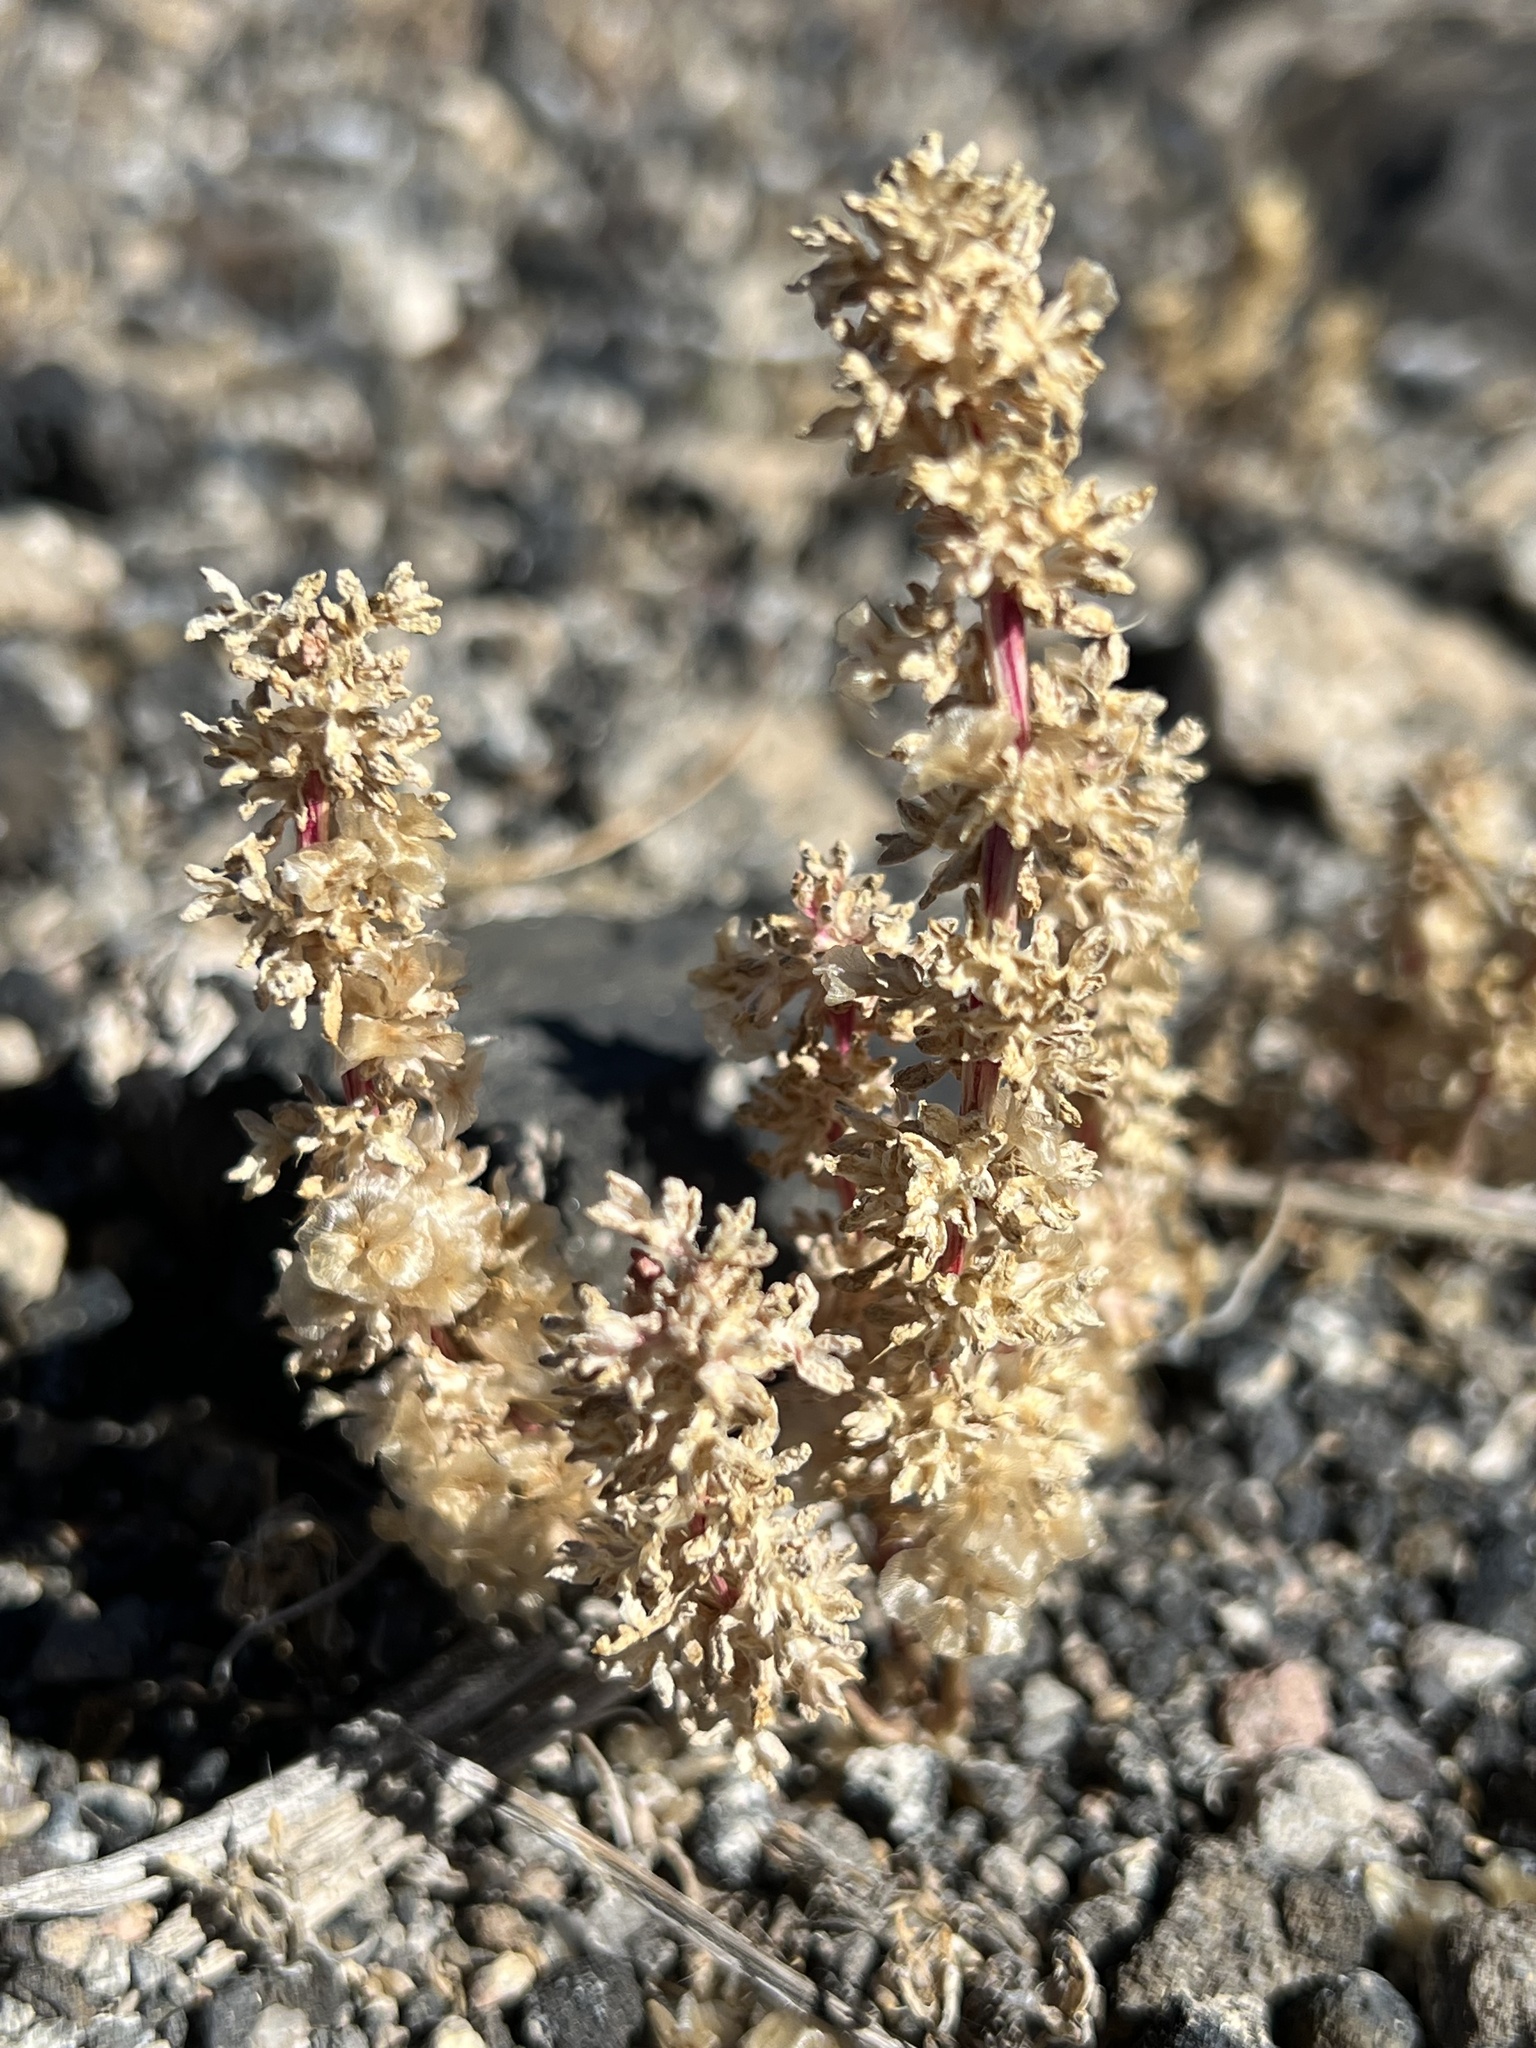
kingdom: Plantae
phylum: Tracheophyta
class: Magnoliopsida
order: Caryophyllales
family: Amaranthaceae
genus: Halogeton
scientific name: Halogeton glomeratus
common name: Saltlover
